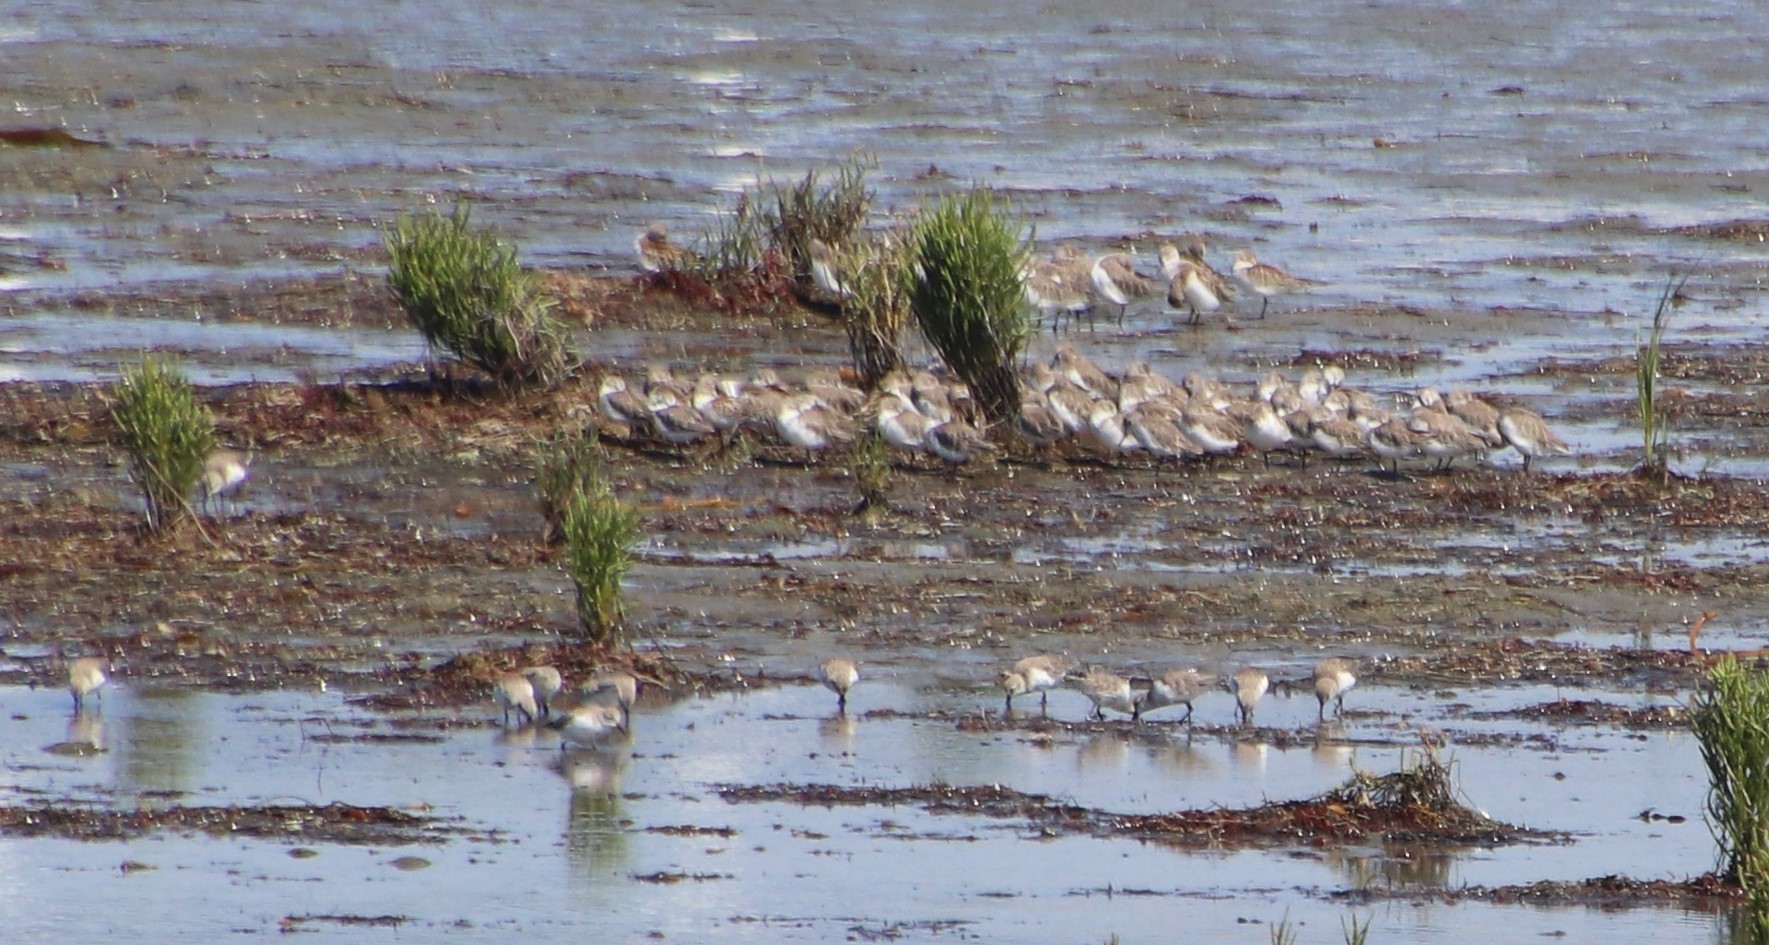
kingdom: Animalia
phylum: Chordata
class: Aves
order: Charadriiformes
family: Scolopacidae
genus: Calidris
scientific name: Calidris mauri
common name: Western sandpiper
